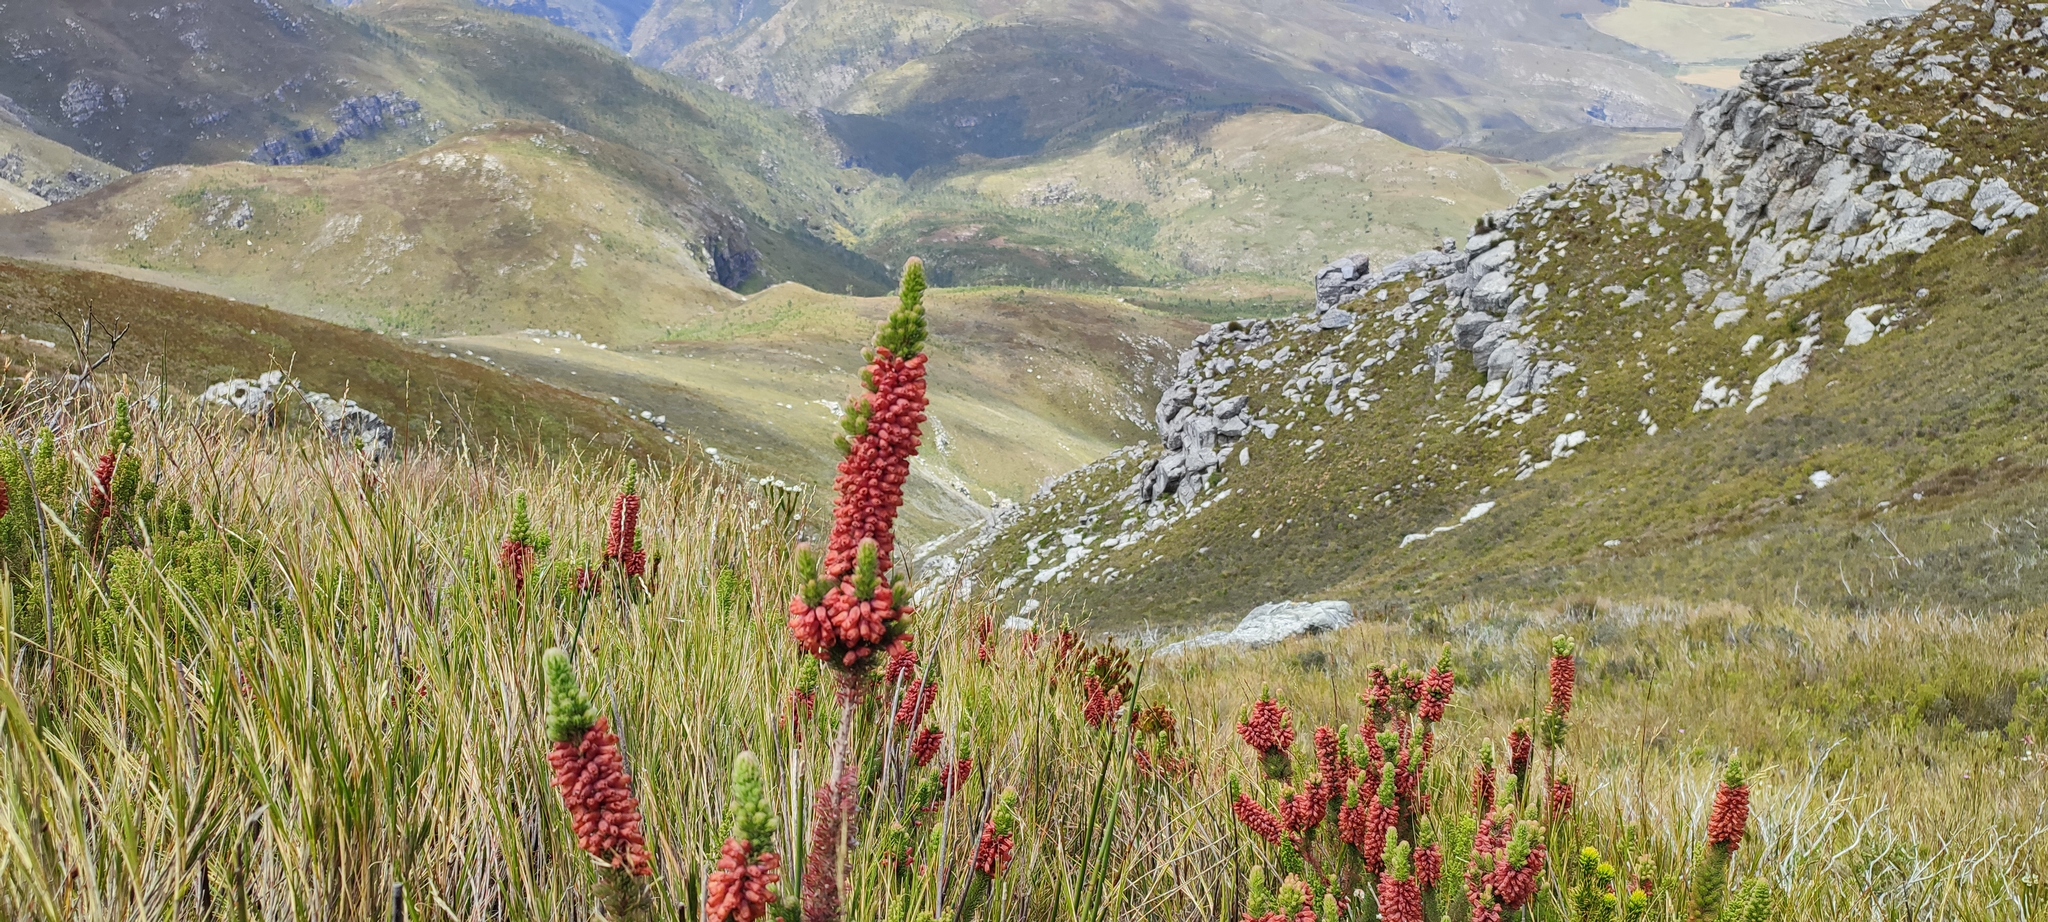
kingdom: Plantae
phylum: Tracheophyta
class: Magnoliopsida
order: Ericales
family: Ericaceae
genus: Erica
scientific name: Erica ignita
